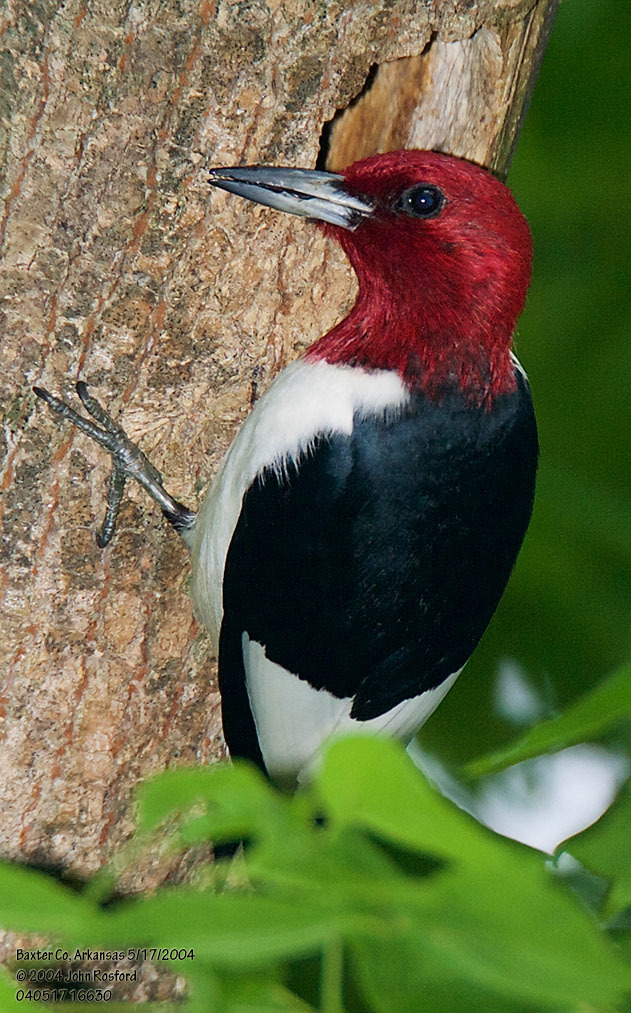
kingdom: Animalia
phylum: Chordata
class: Aves
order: Piciformes
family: Picidae
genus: Melanerpes
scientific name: Melanerpes erythrocephalus
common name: Red-headed woodpecker
